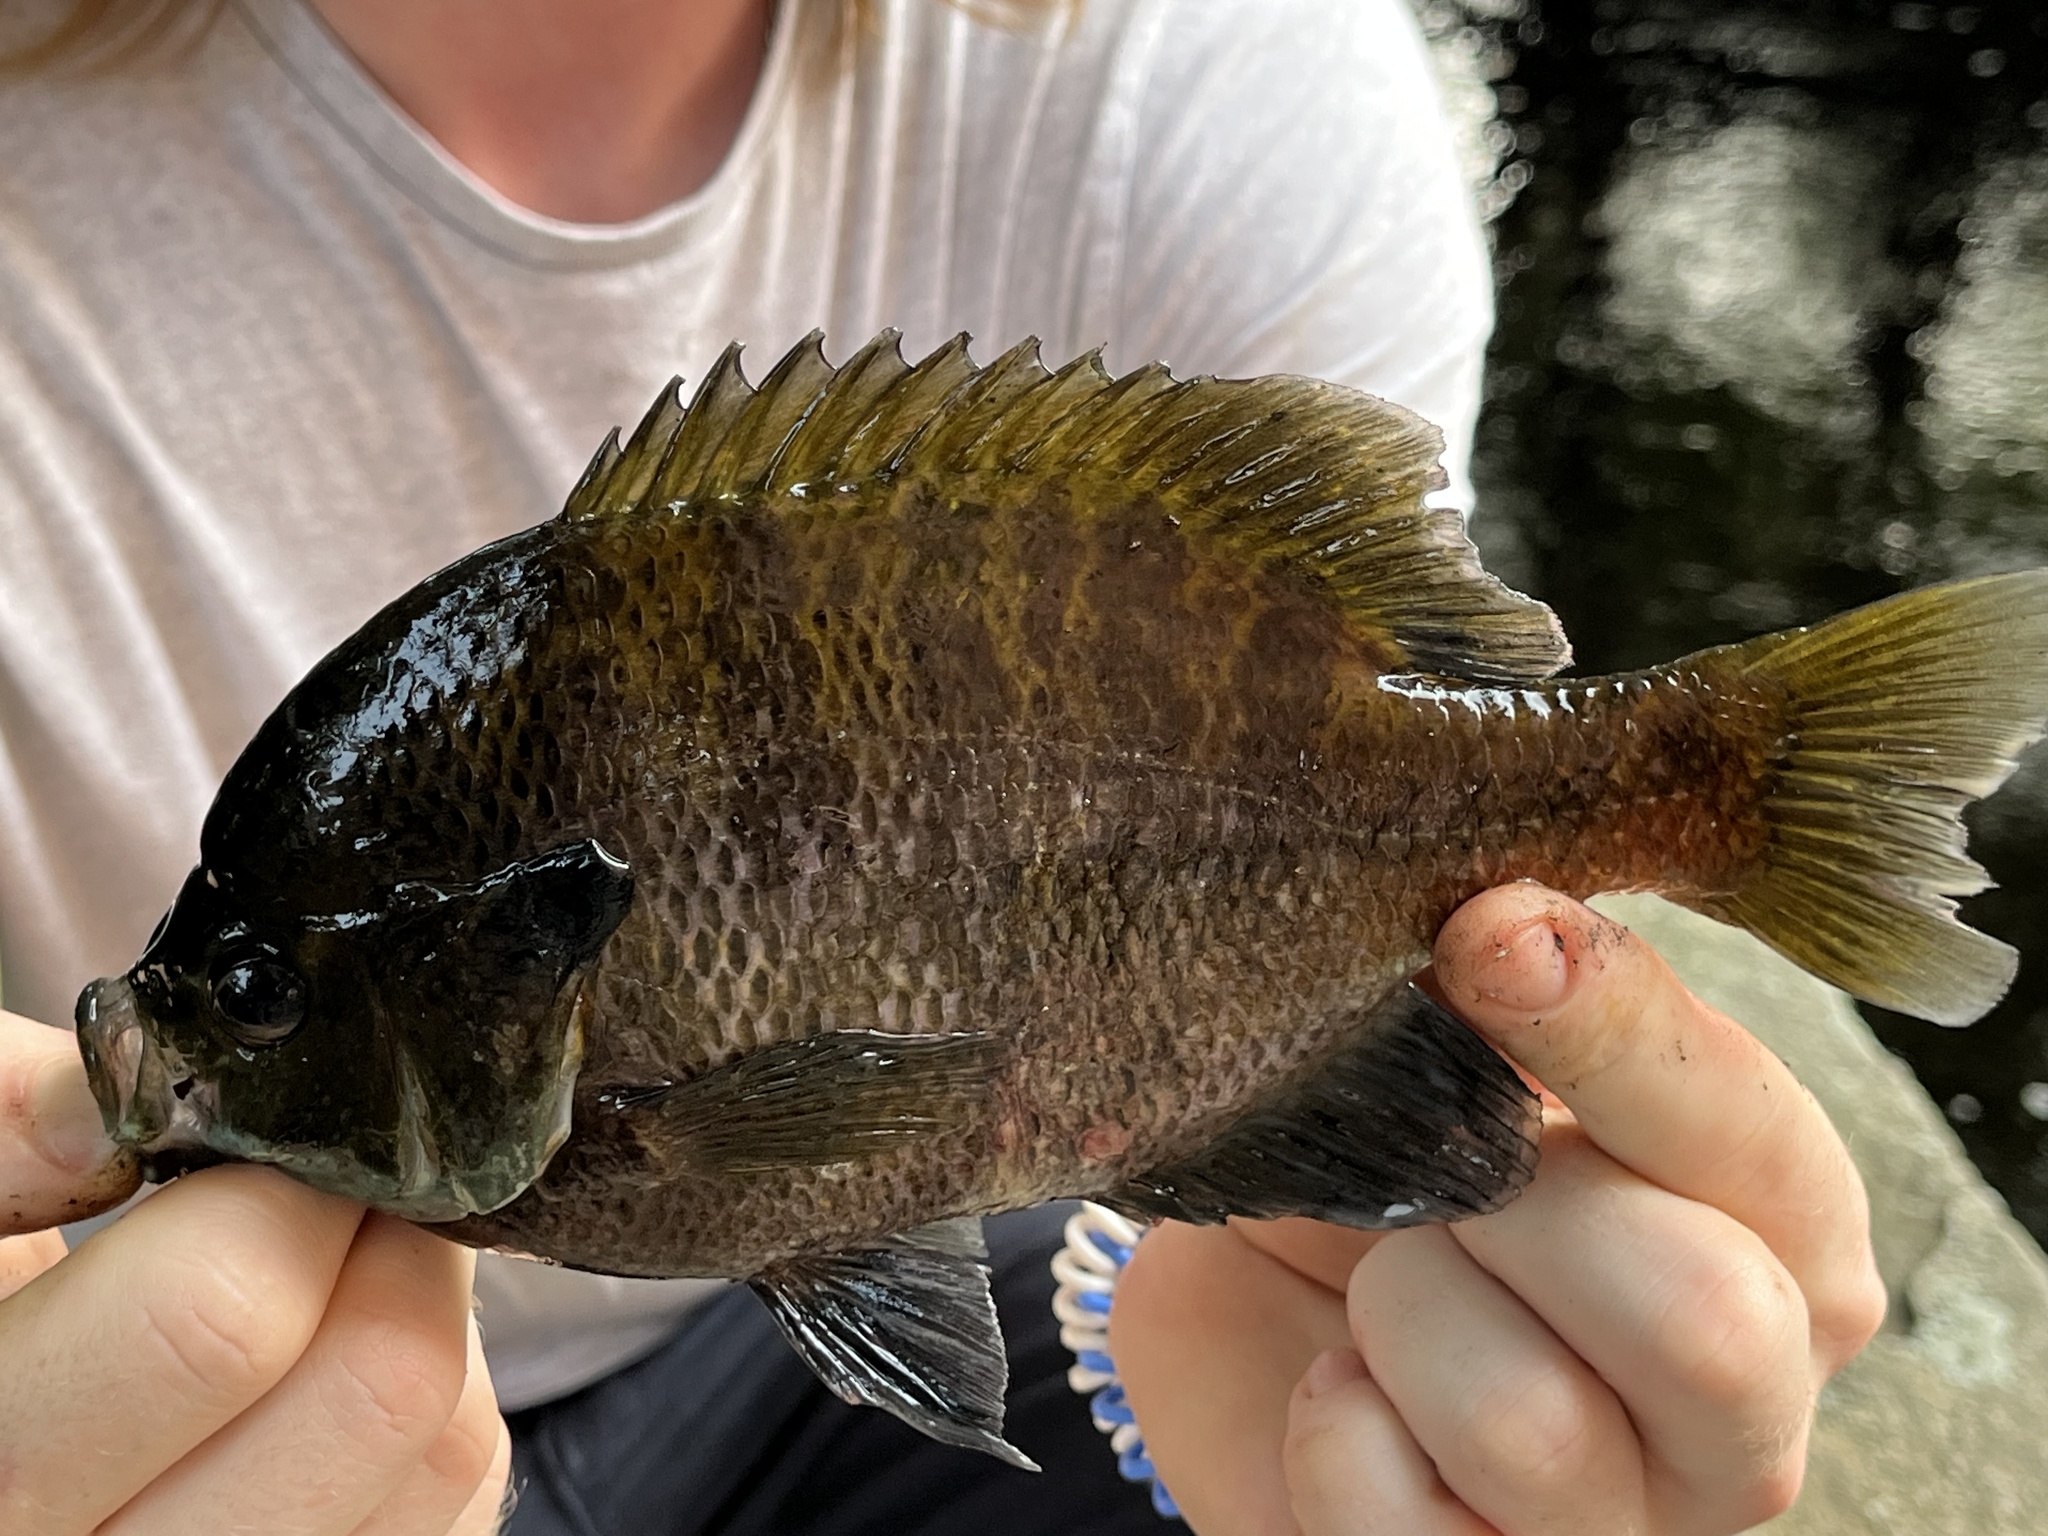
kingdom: Animalia
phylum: Chordata
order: Perciformes
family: Centrarchidae
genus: Lepomis
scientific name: Lepomis macrochirus
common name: Bluegill
